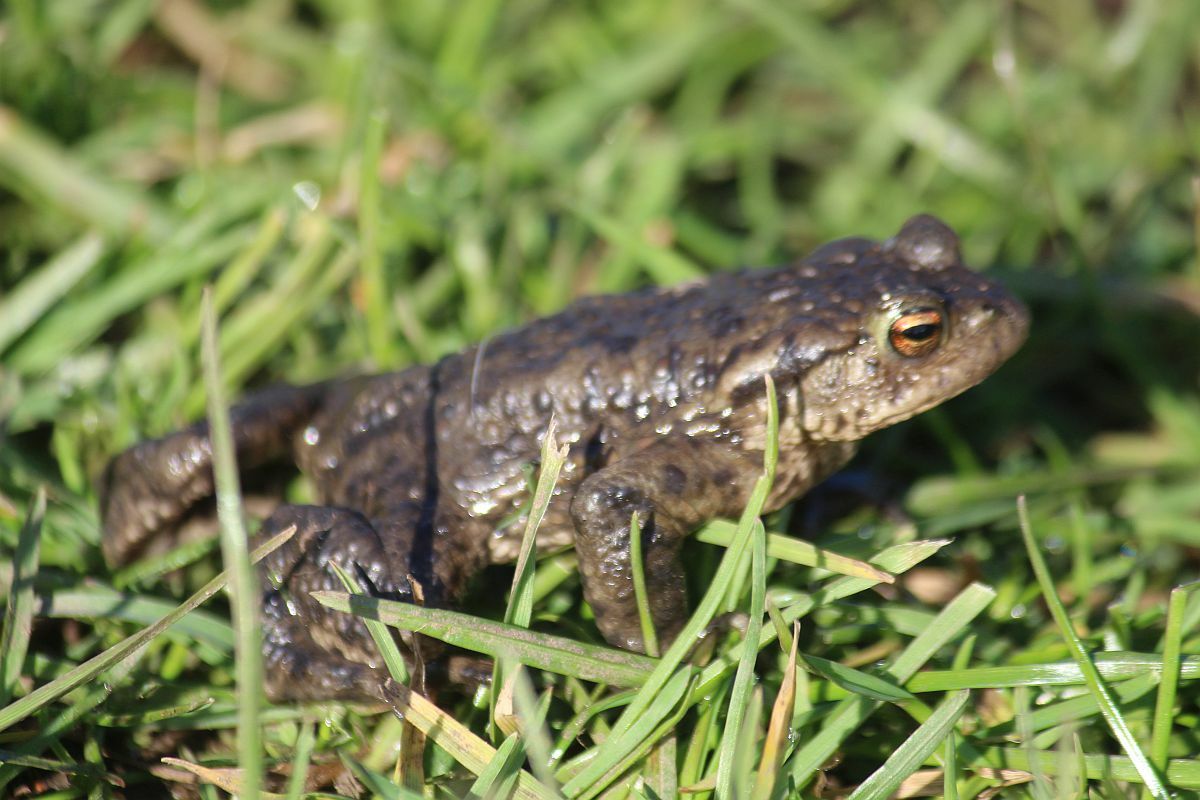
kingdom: Animalia
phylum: Chordata
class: Amphibia
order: Anura
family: Bufonidae
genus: Bufo
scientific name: Bufo bufo
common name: Common toad
